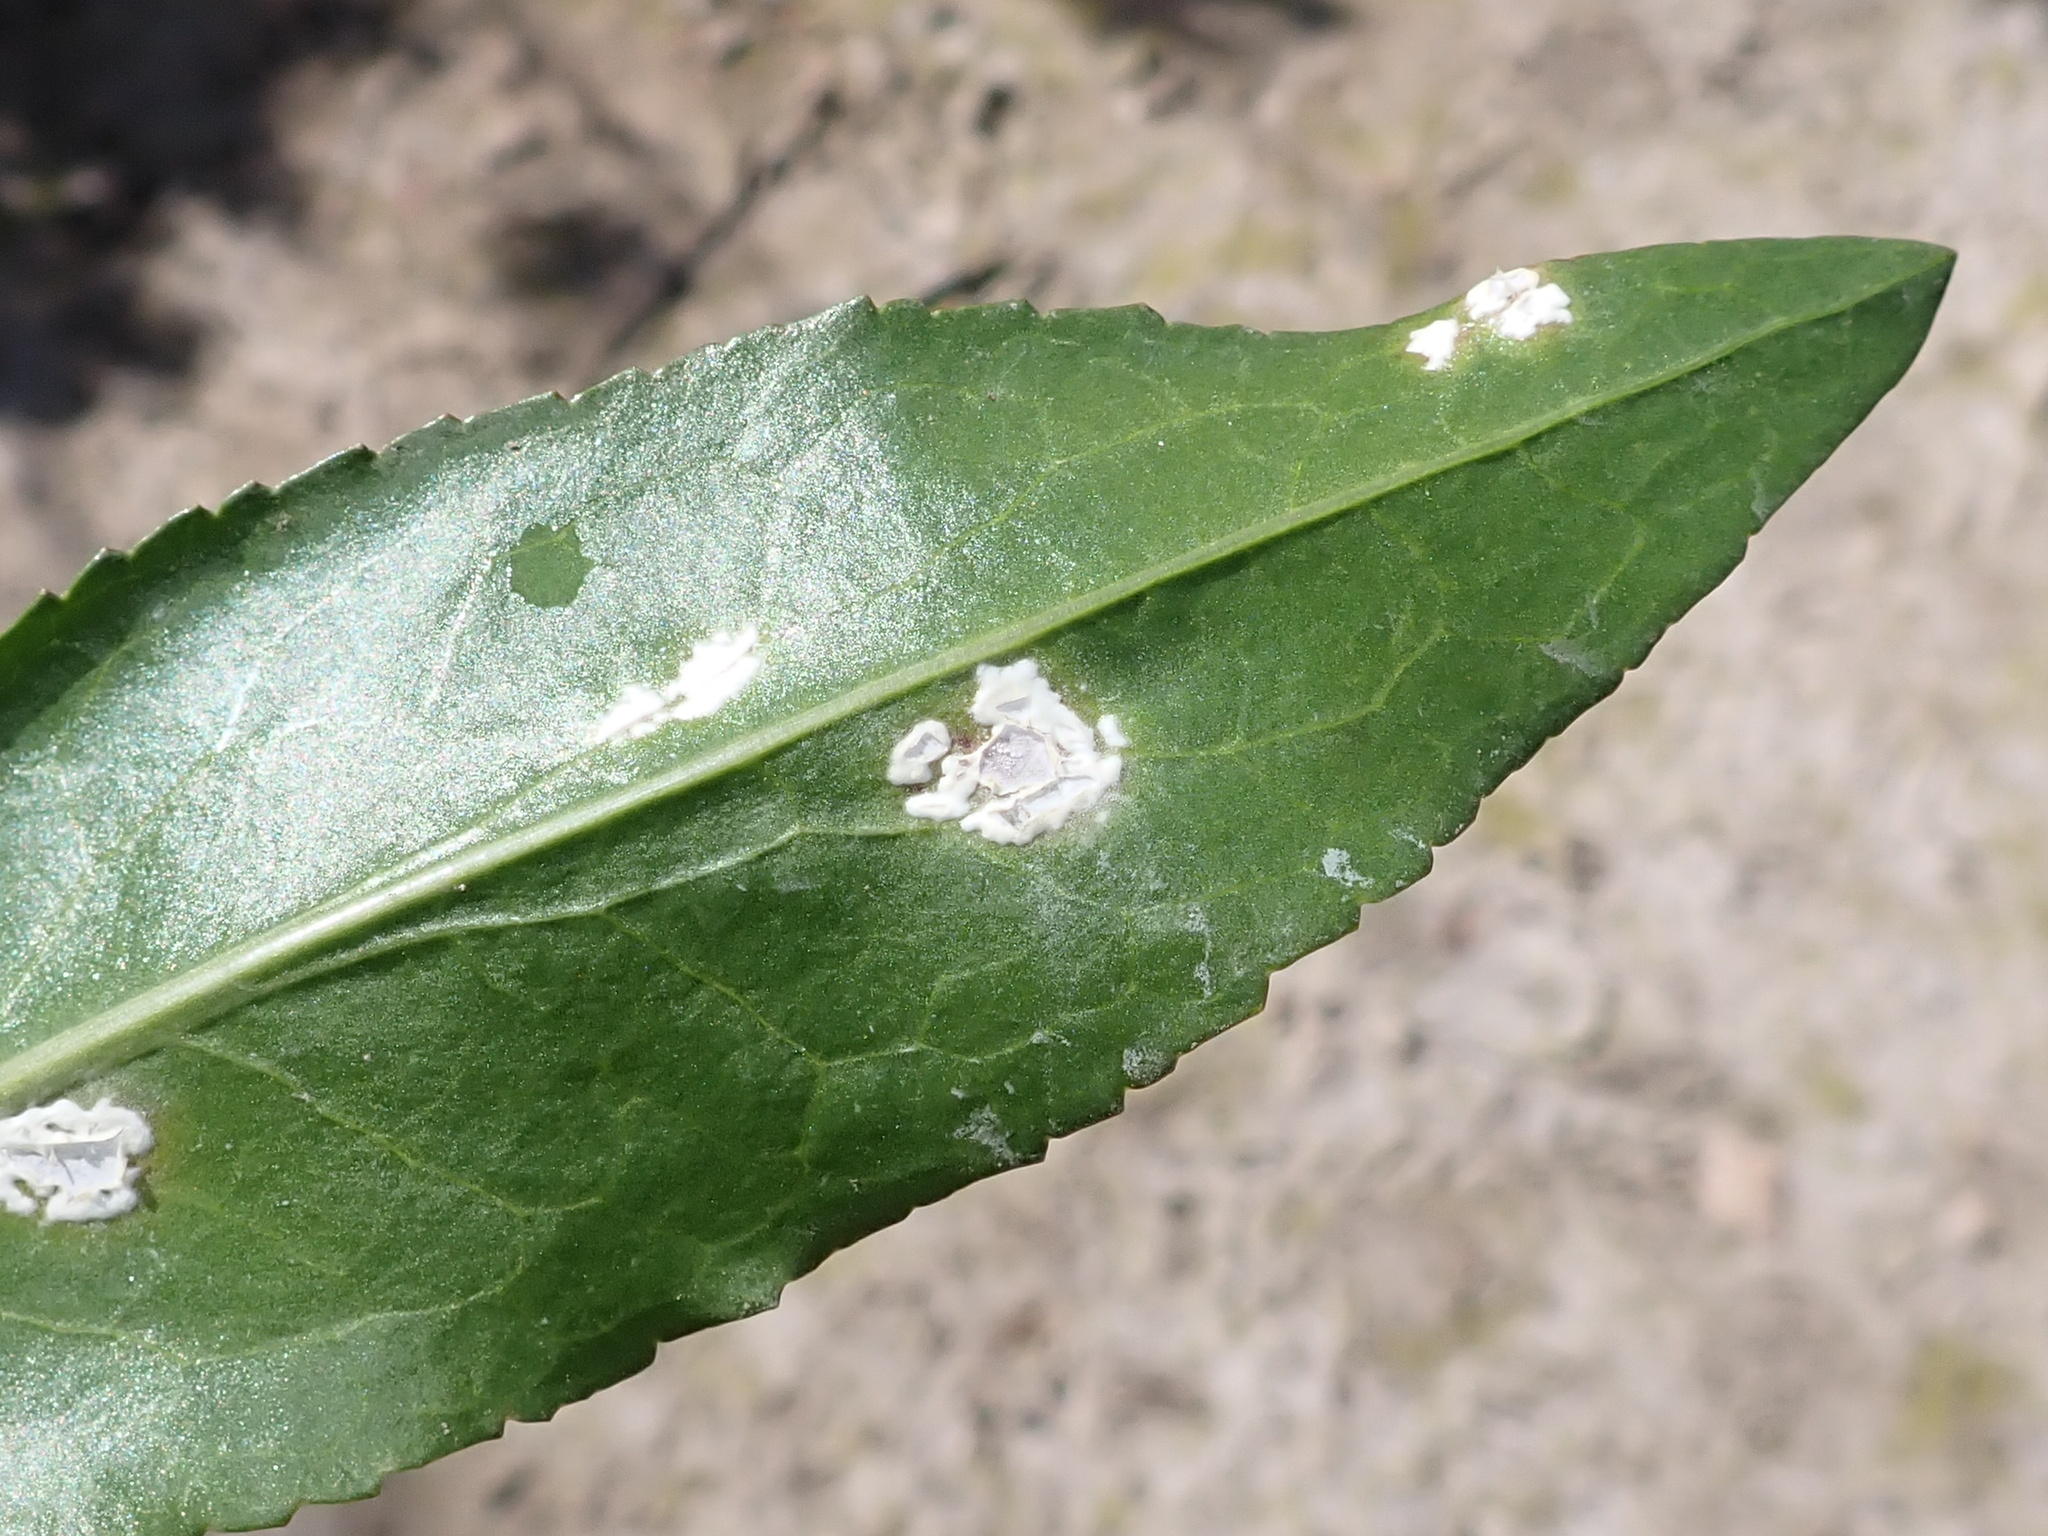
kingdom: Chromista
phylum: Oomycota
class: Peronosporea
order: Albuginales
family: Albuginaceae
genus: Albugo
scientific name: Albugo lepidii
